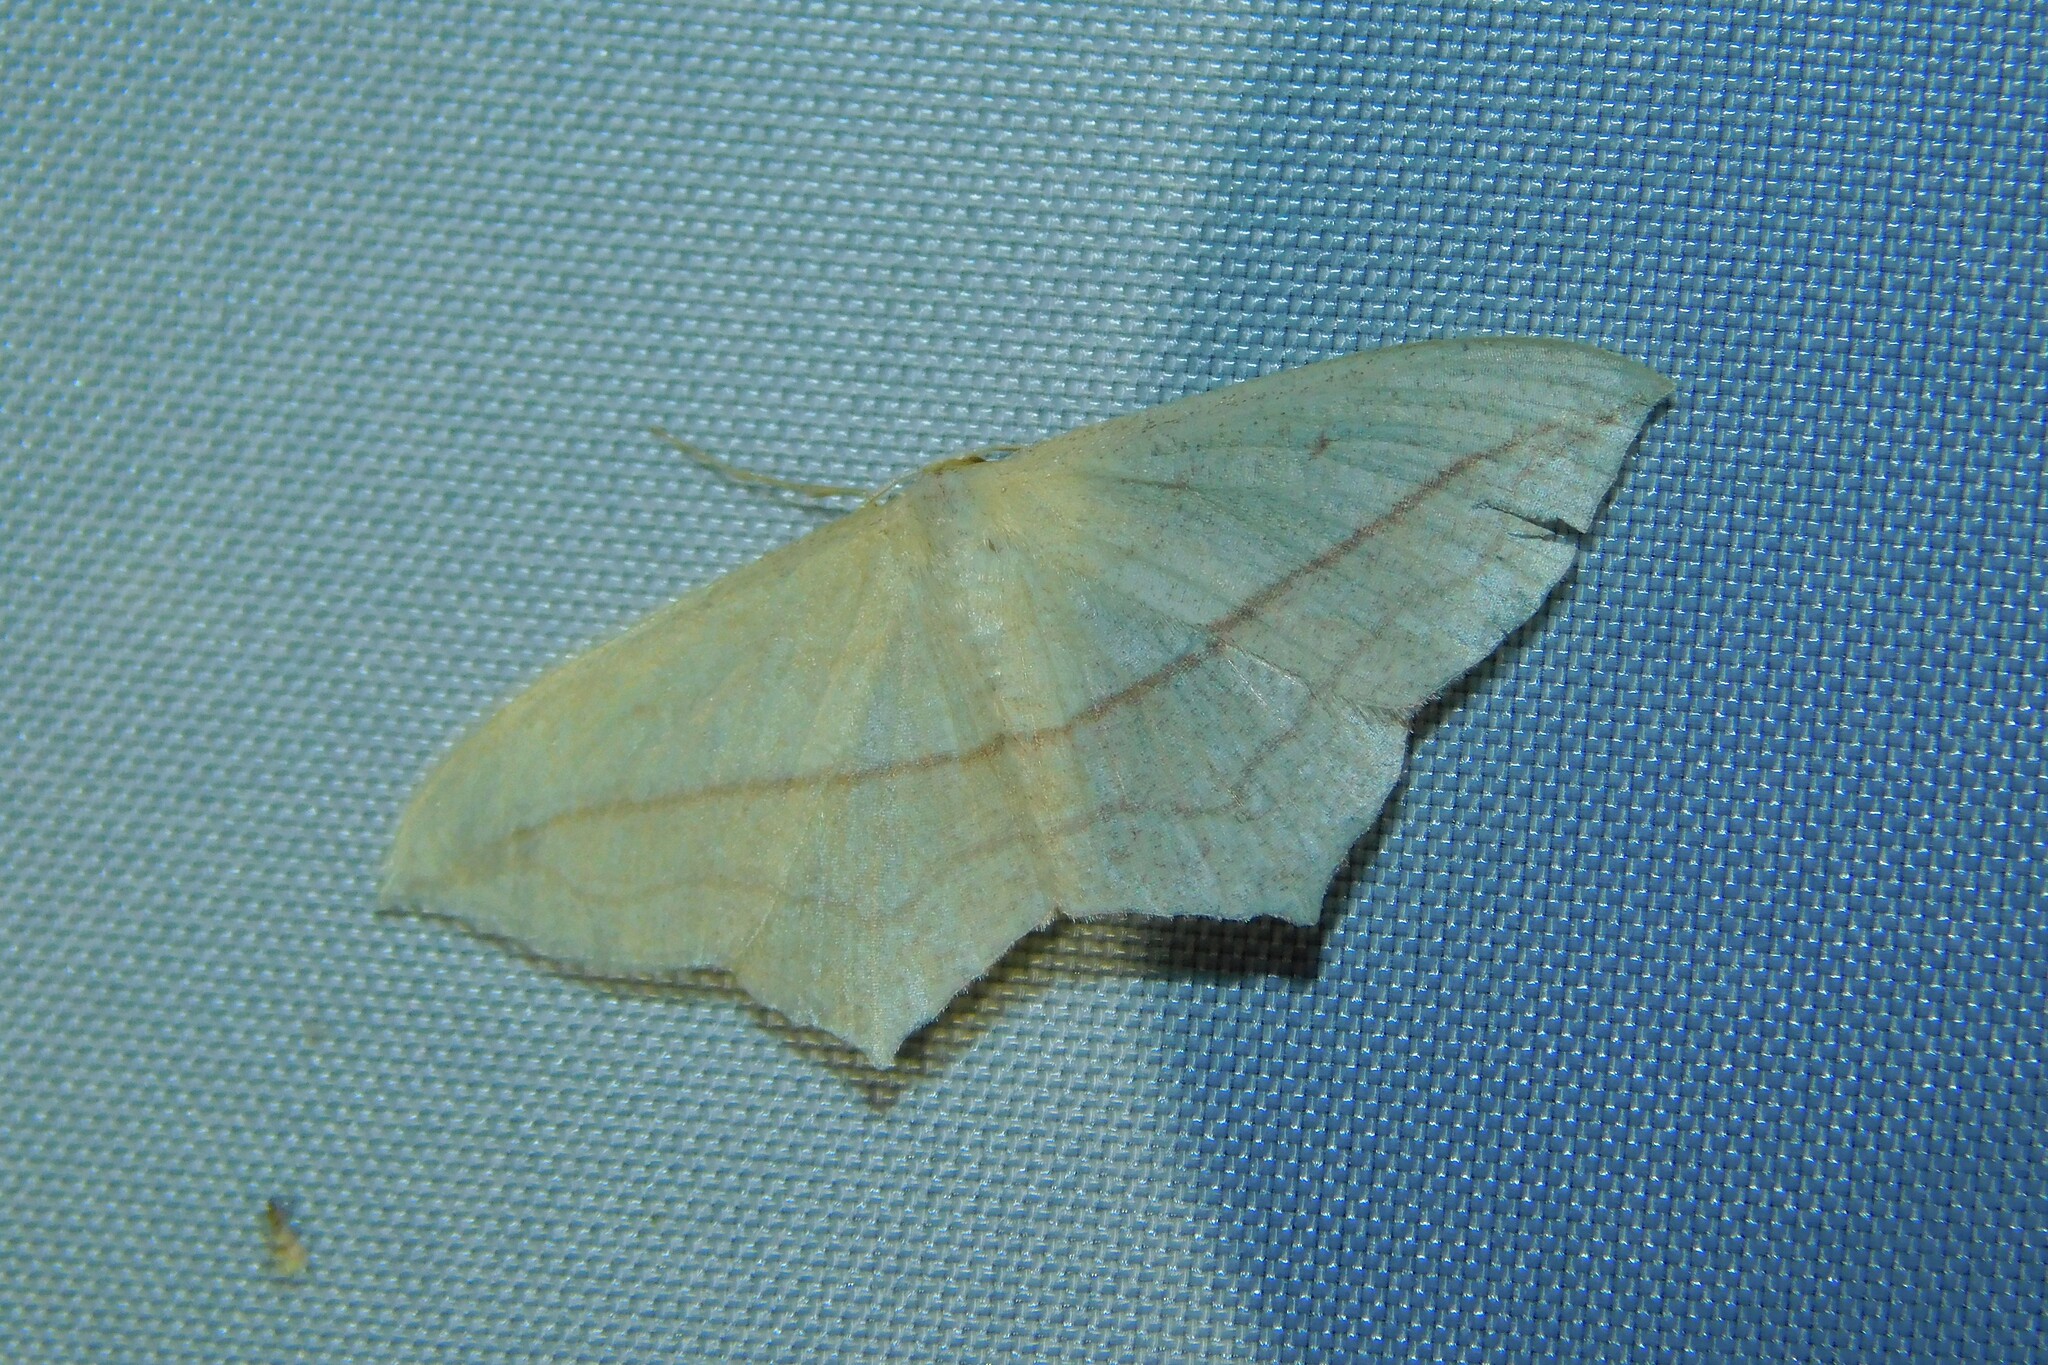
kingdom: Animalia
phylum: Arthropoda
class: Insecta
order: Lepidoptera
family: Geometridae
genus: Timandra
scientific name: Timandra comae
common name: Blood-vein
